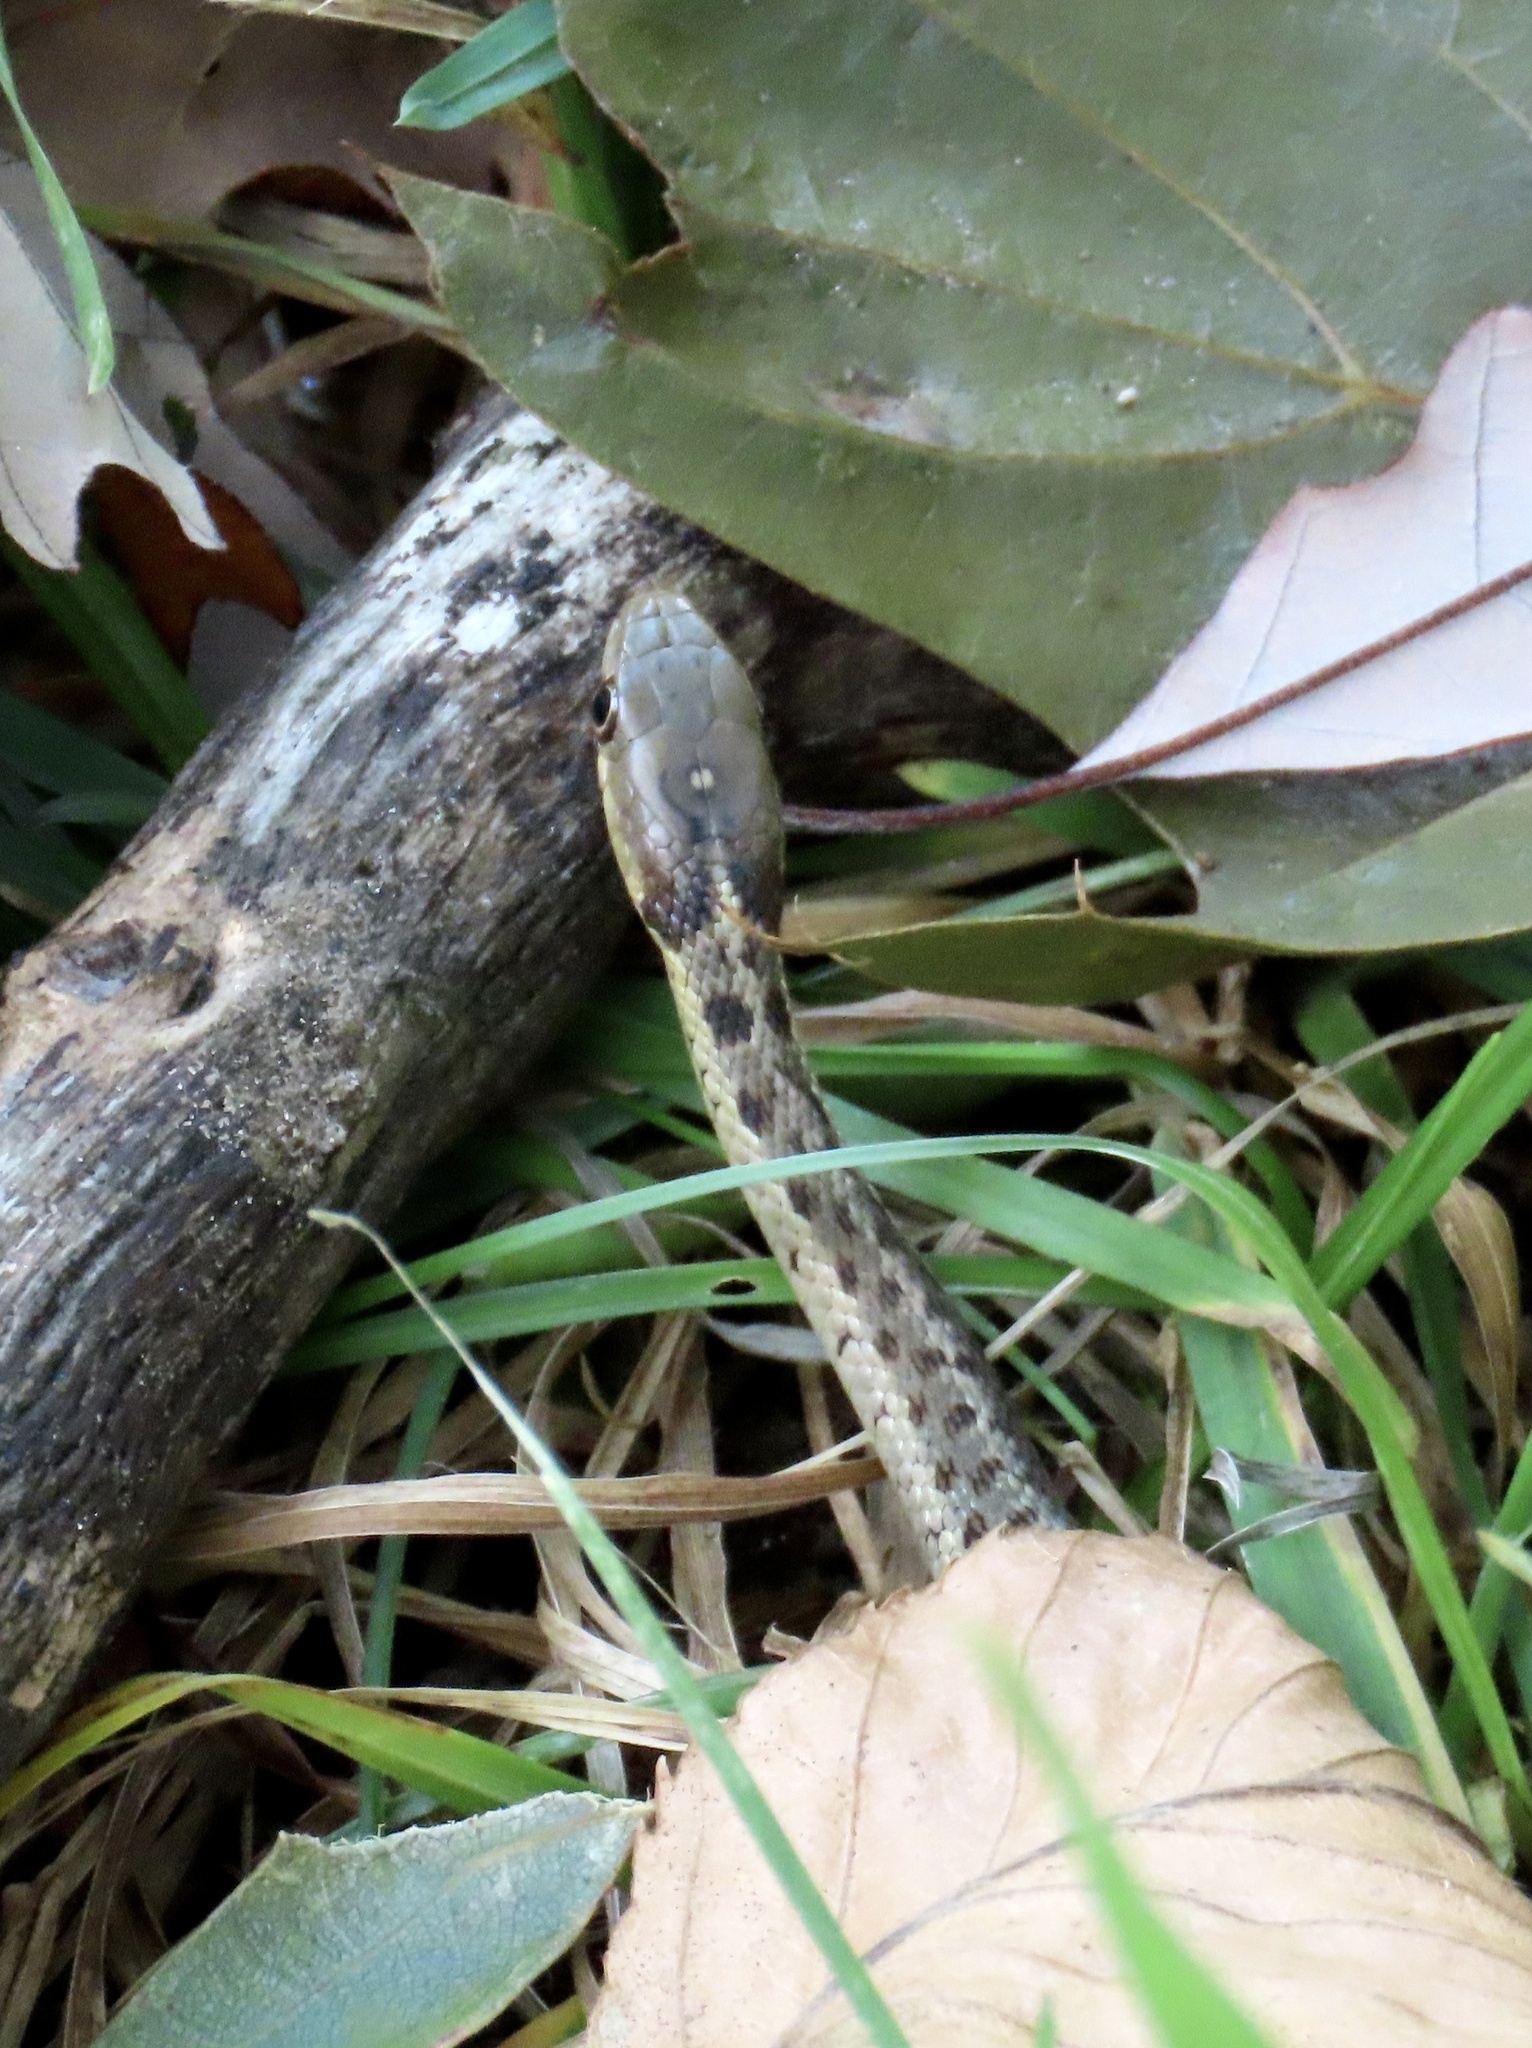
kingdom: Animalia
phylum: Chordata
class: Squamata
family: Colubridae
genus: Thamnophis
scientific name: Thamnophis sirtalis
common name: Common garter snake
